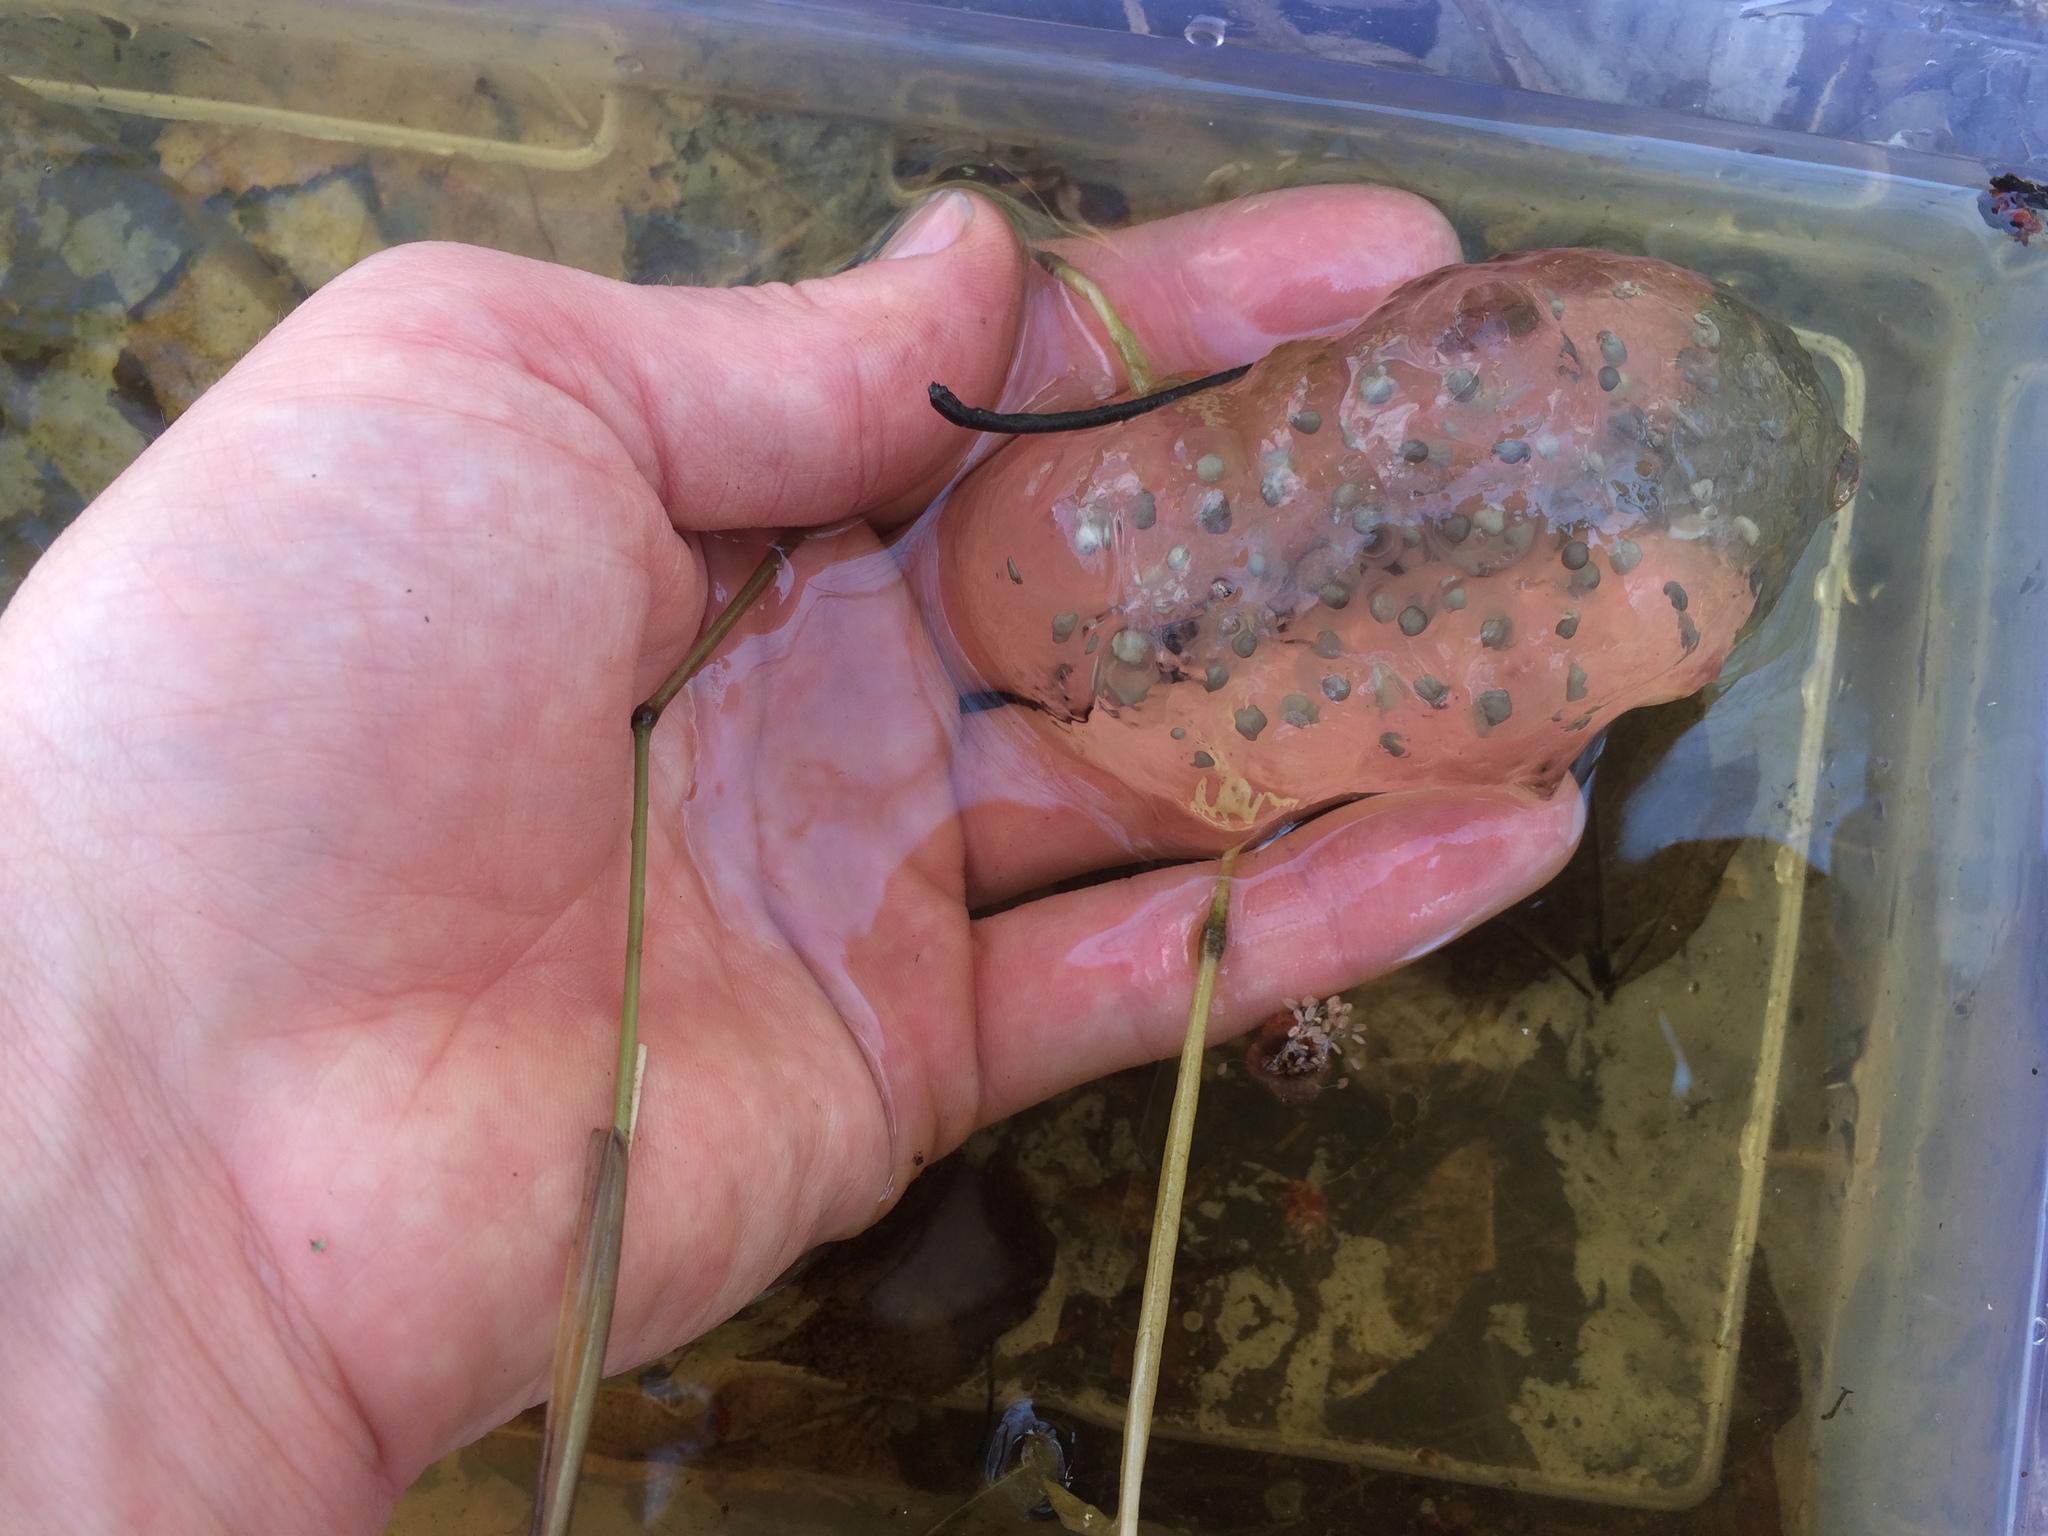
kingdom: Animalia
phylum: Chordata
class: Amphibia
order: Caudata
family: Ambystomatidae
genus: Ambystoma
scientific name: Ambystoma maculatum
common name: Spotted salamander
